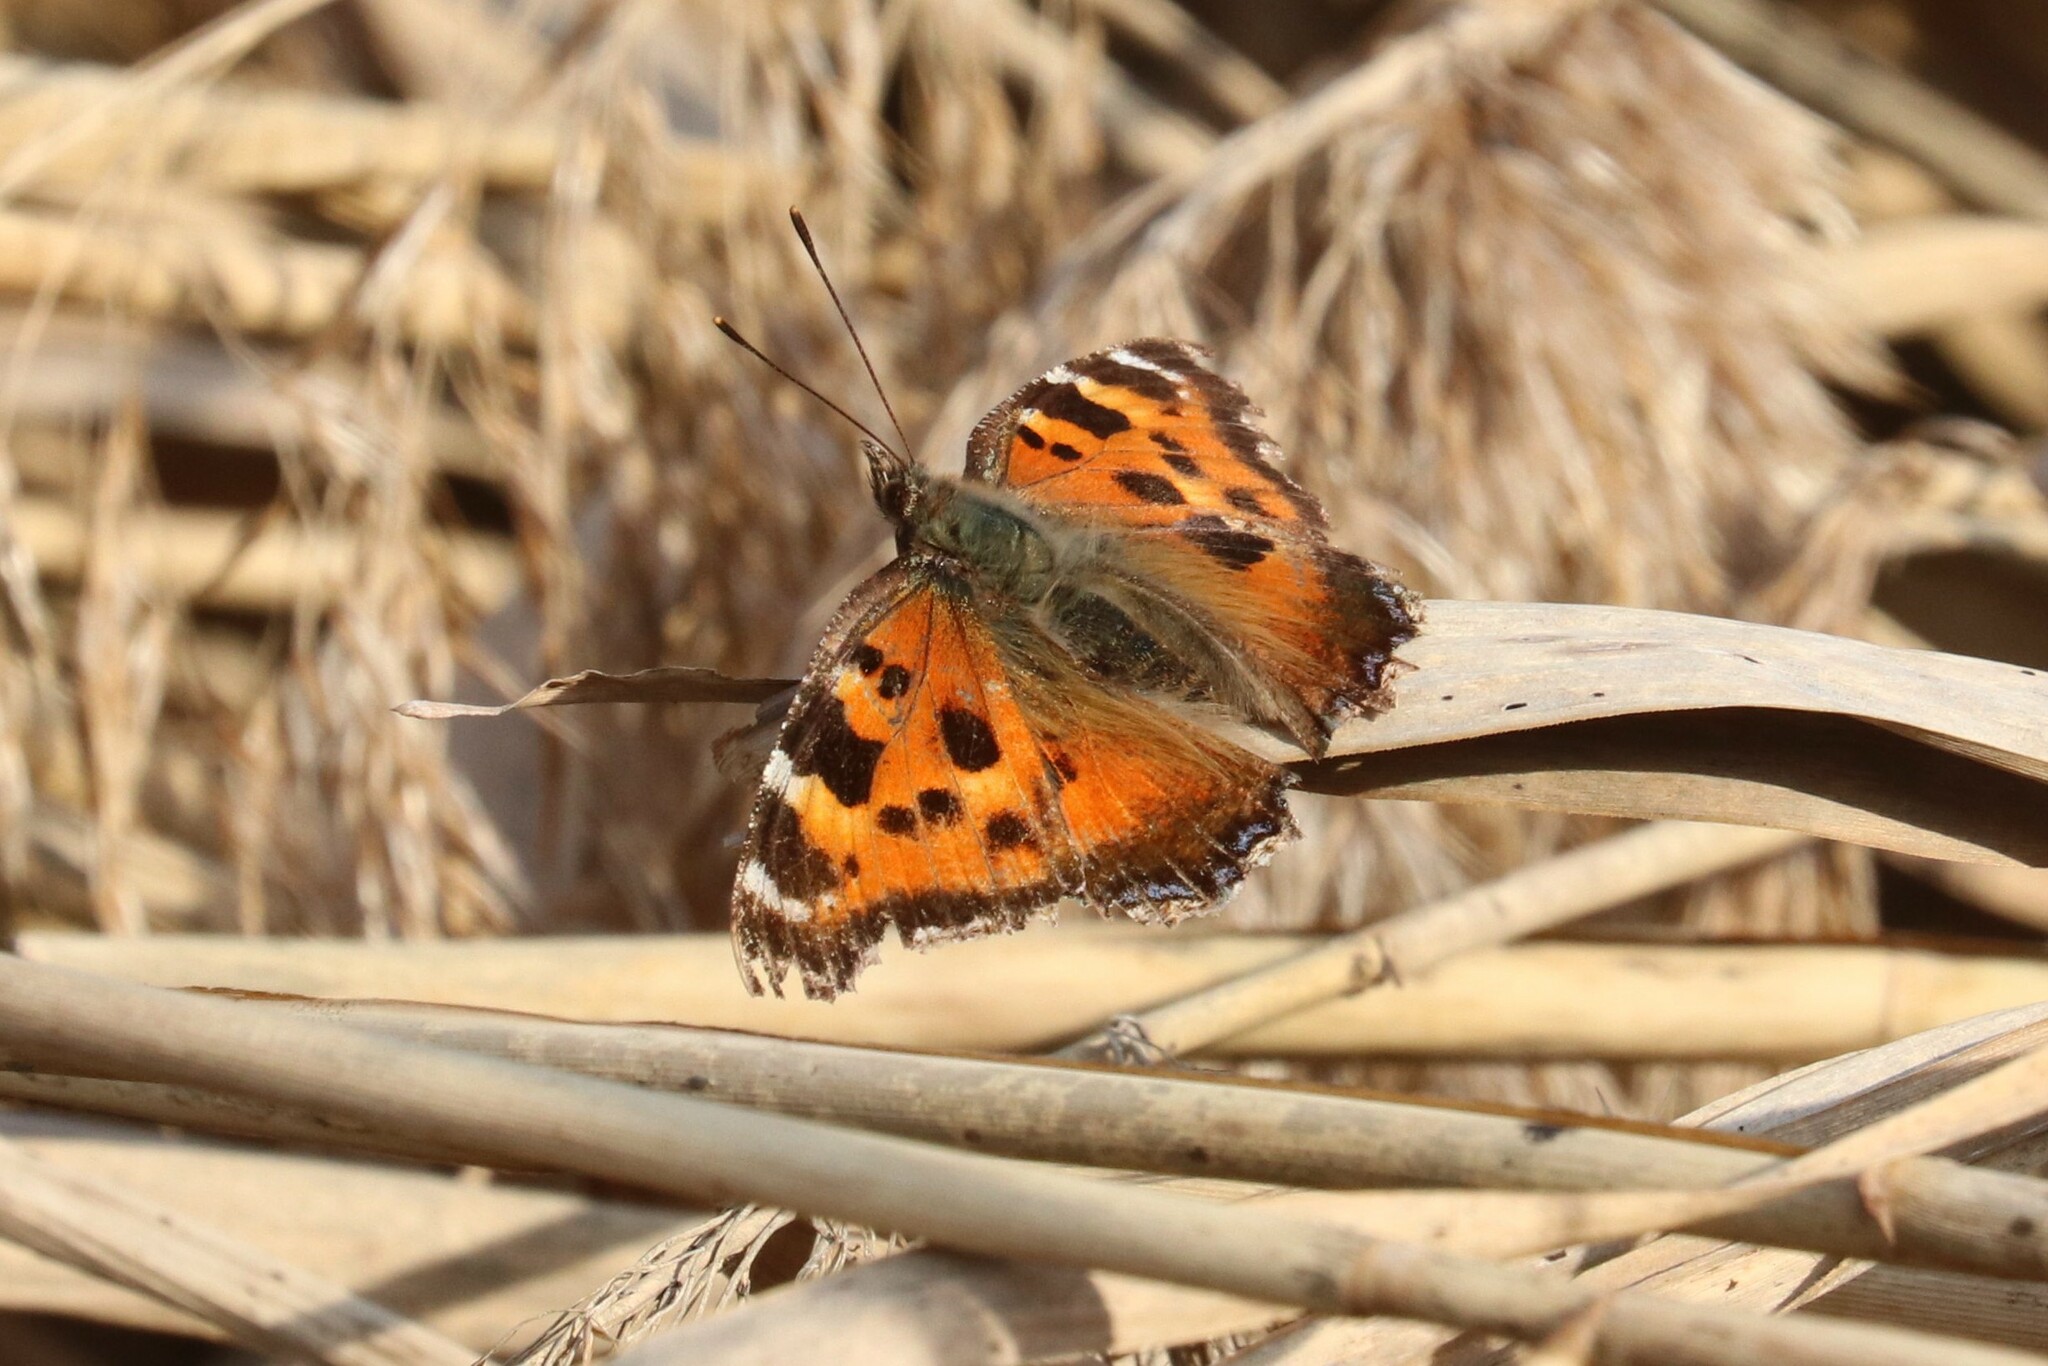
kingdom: Animalia
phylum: Arthropoda
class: Insecta
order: Lepidoptera
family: Nymphalidae
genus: Nymphalis
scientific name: Nymphalis xanthomelas
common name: Scarce tortoiseshell
